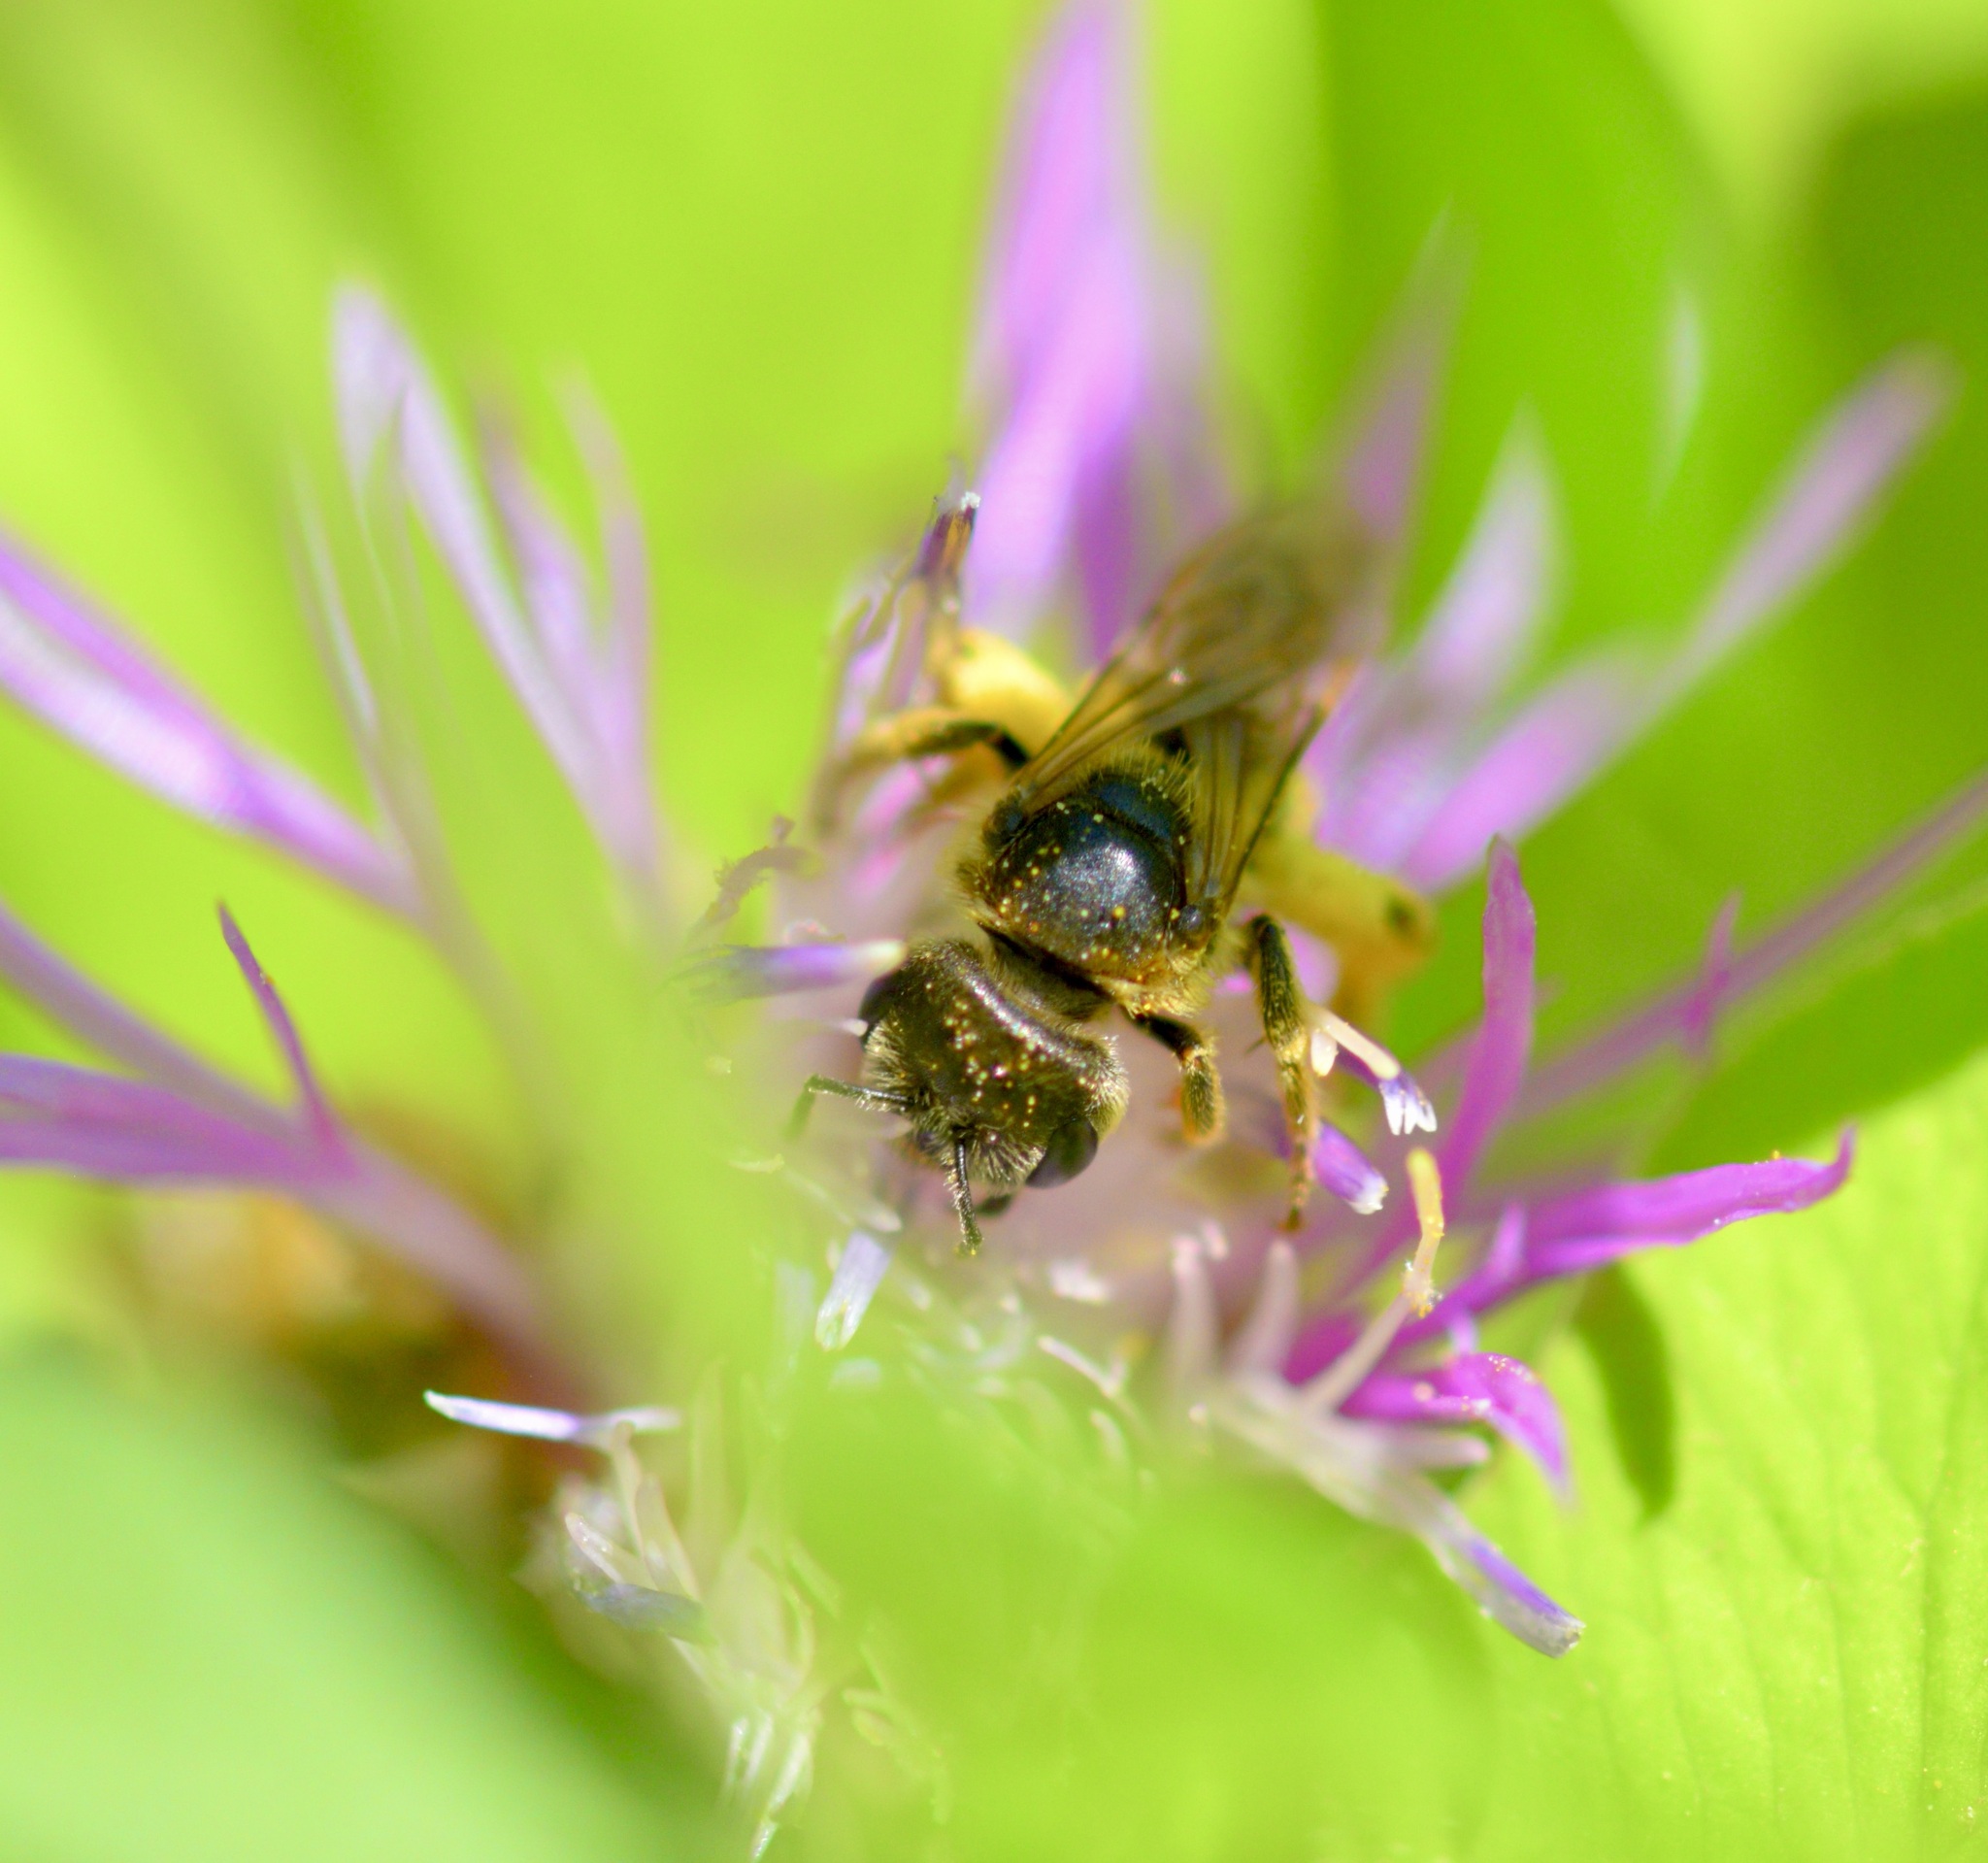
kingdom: Animalia
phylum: Arthropoda
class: Insecta
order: Hymenoptera
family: Halictidae
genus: Halictus
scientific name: Halictus ligatus
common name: Ligated furrow bee
